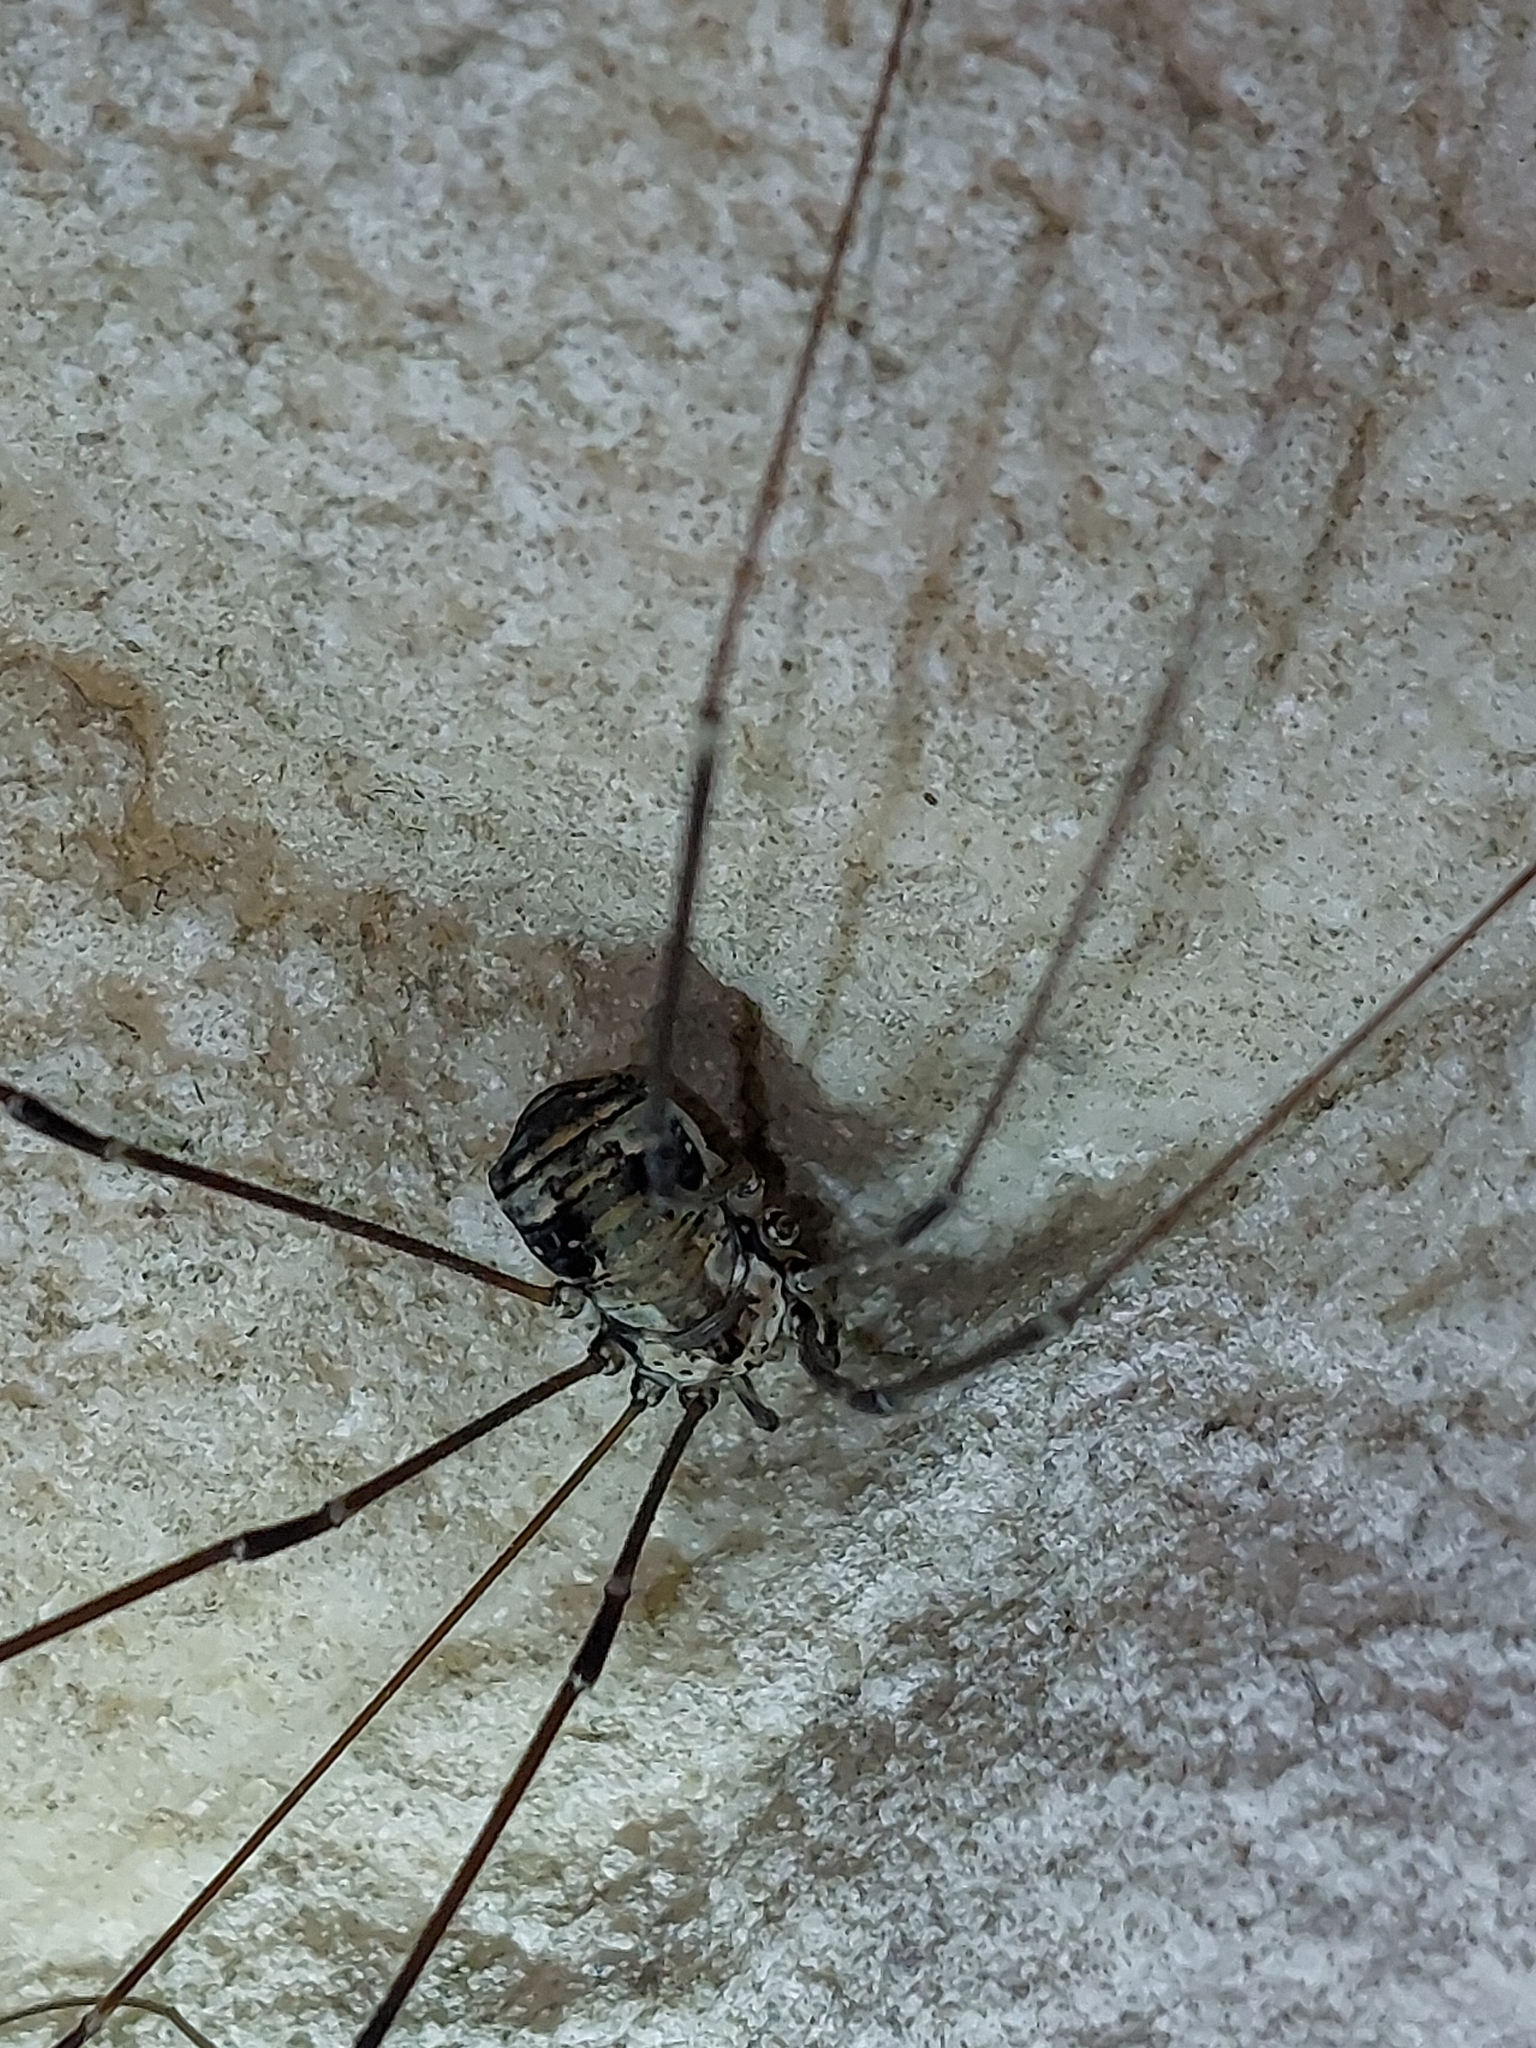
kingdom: Animalia
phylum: Arthropoda
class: Arachnida
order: Opiliones
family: Sclerosomatidae
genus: Leiobunum
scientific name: Leiobunum limbatum
